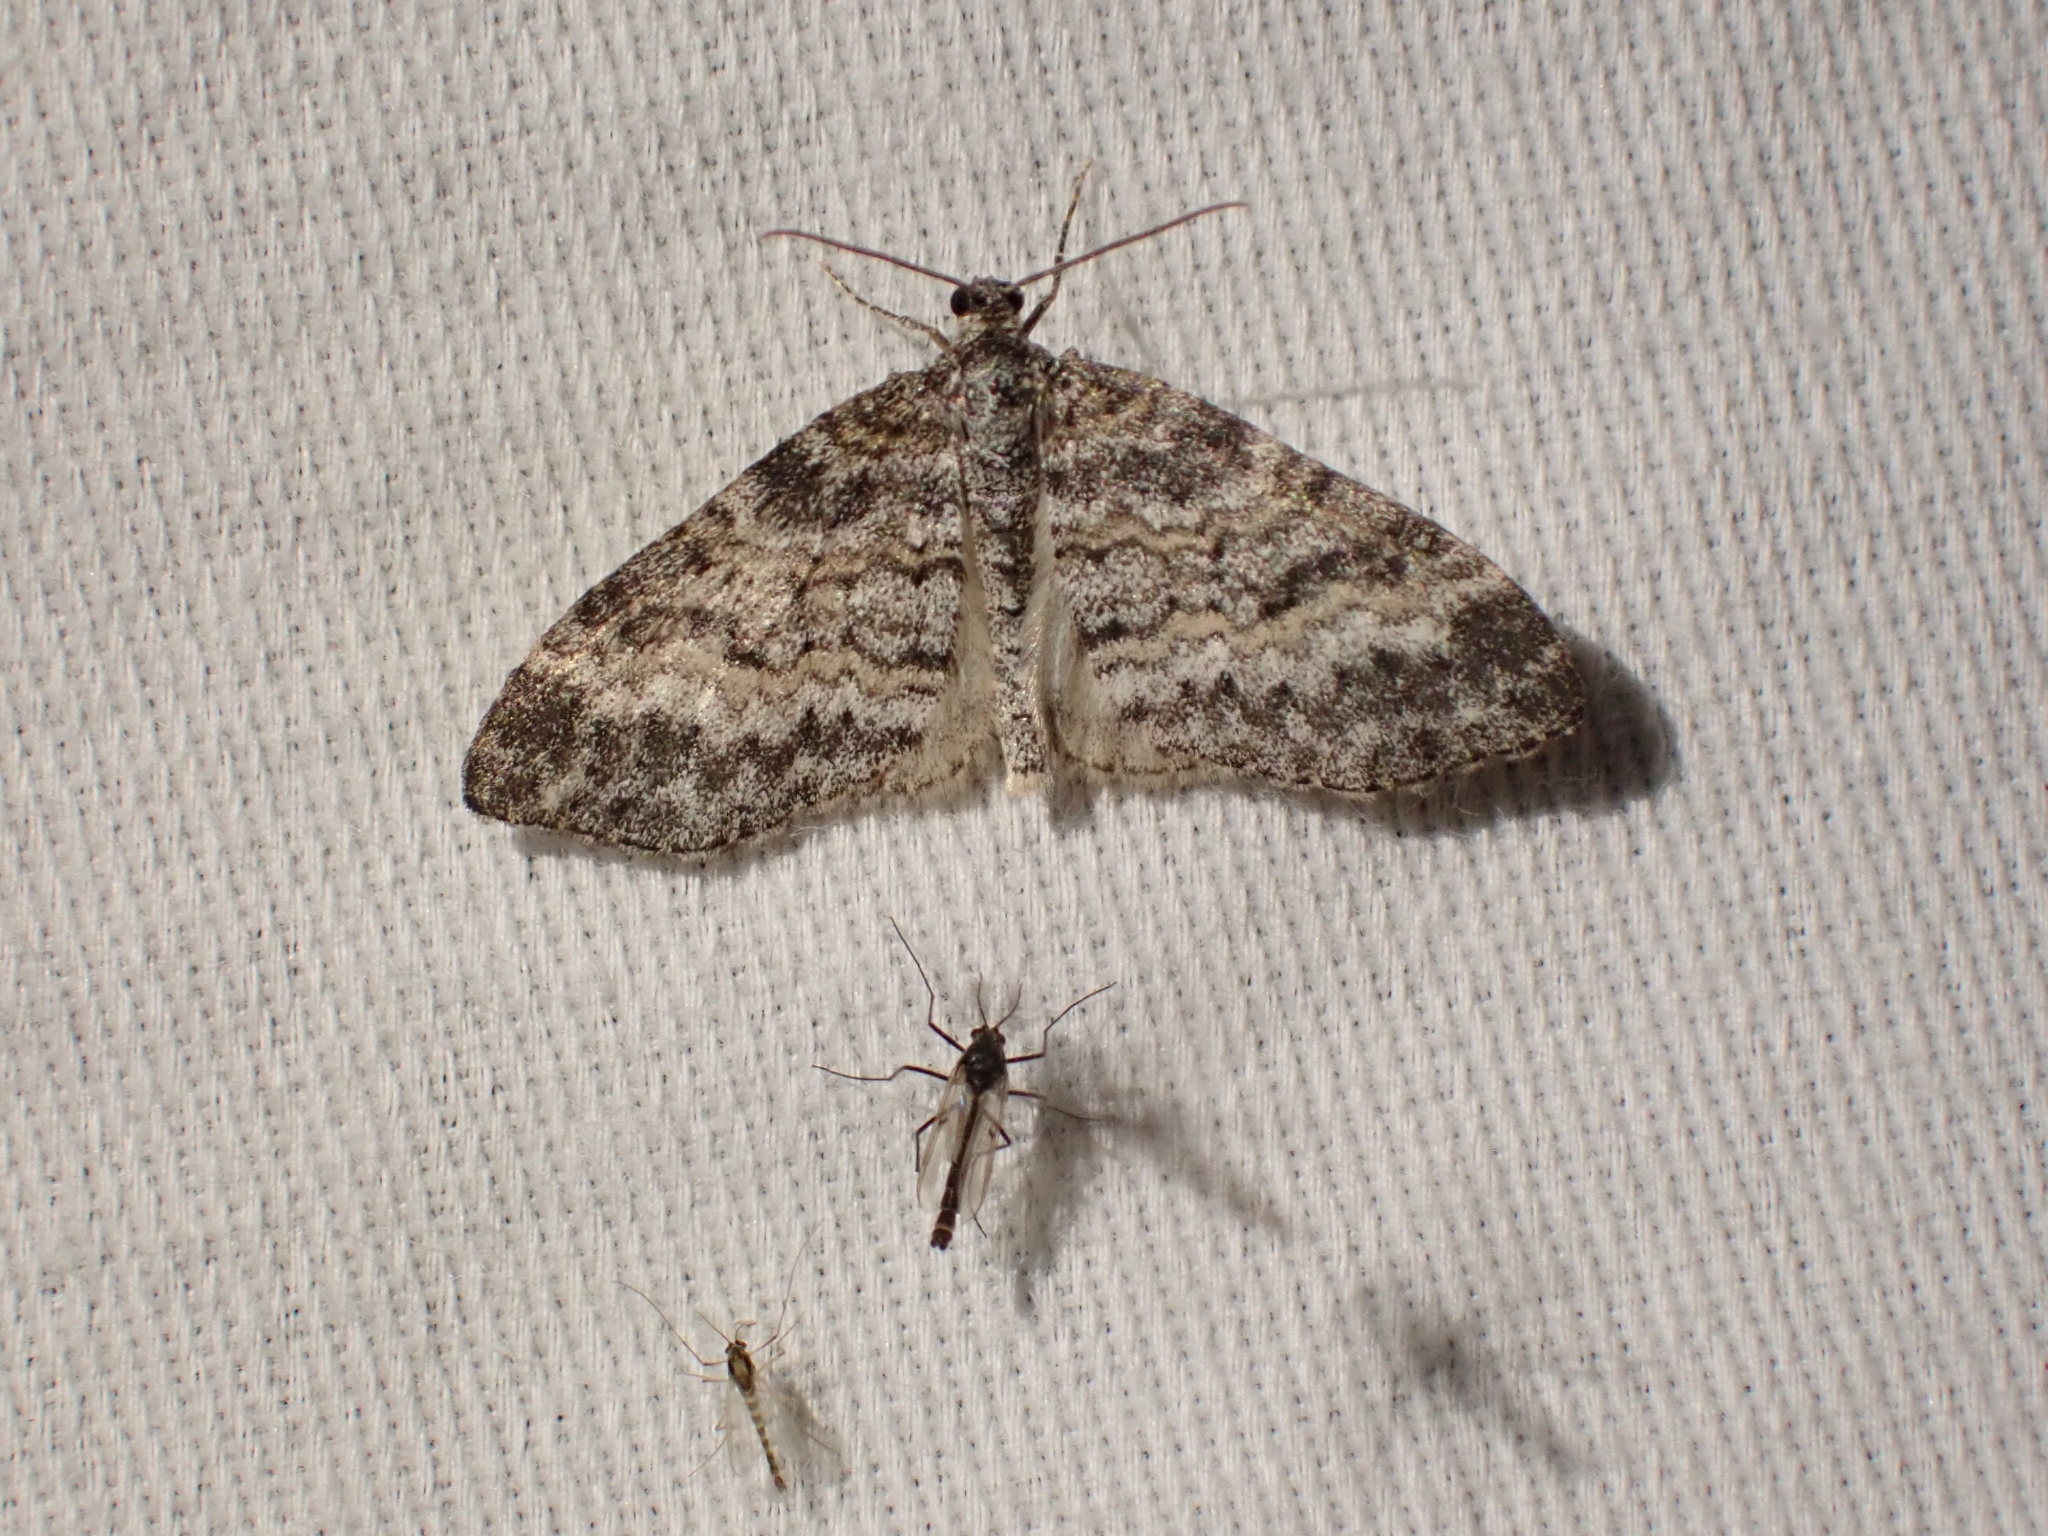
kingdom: Animalia
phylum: Arthropoda
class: Insecta
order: Lepidoptera
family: Geometridae
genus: Lobophora
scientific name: Lobophora nivigerata
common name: Powdered bigwing
